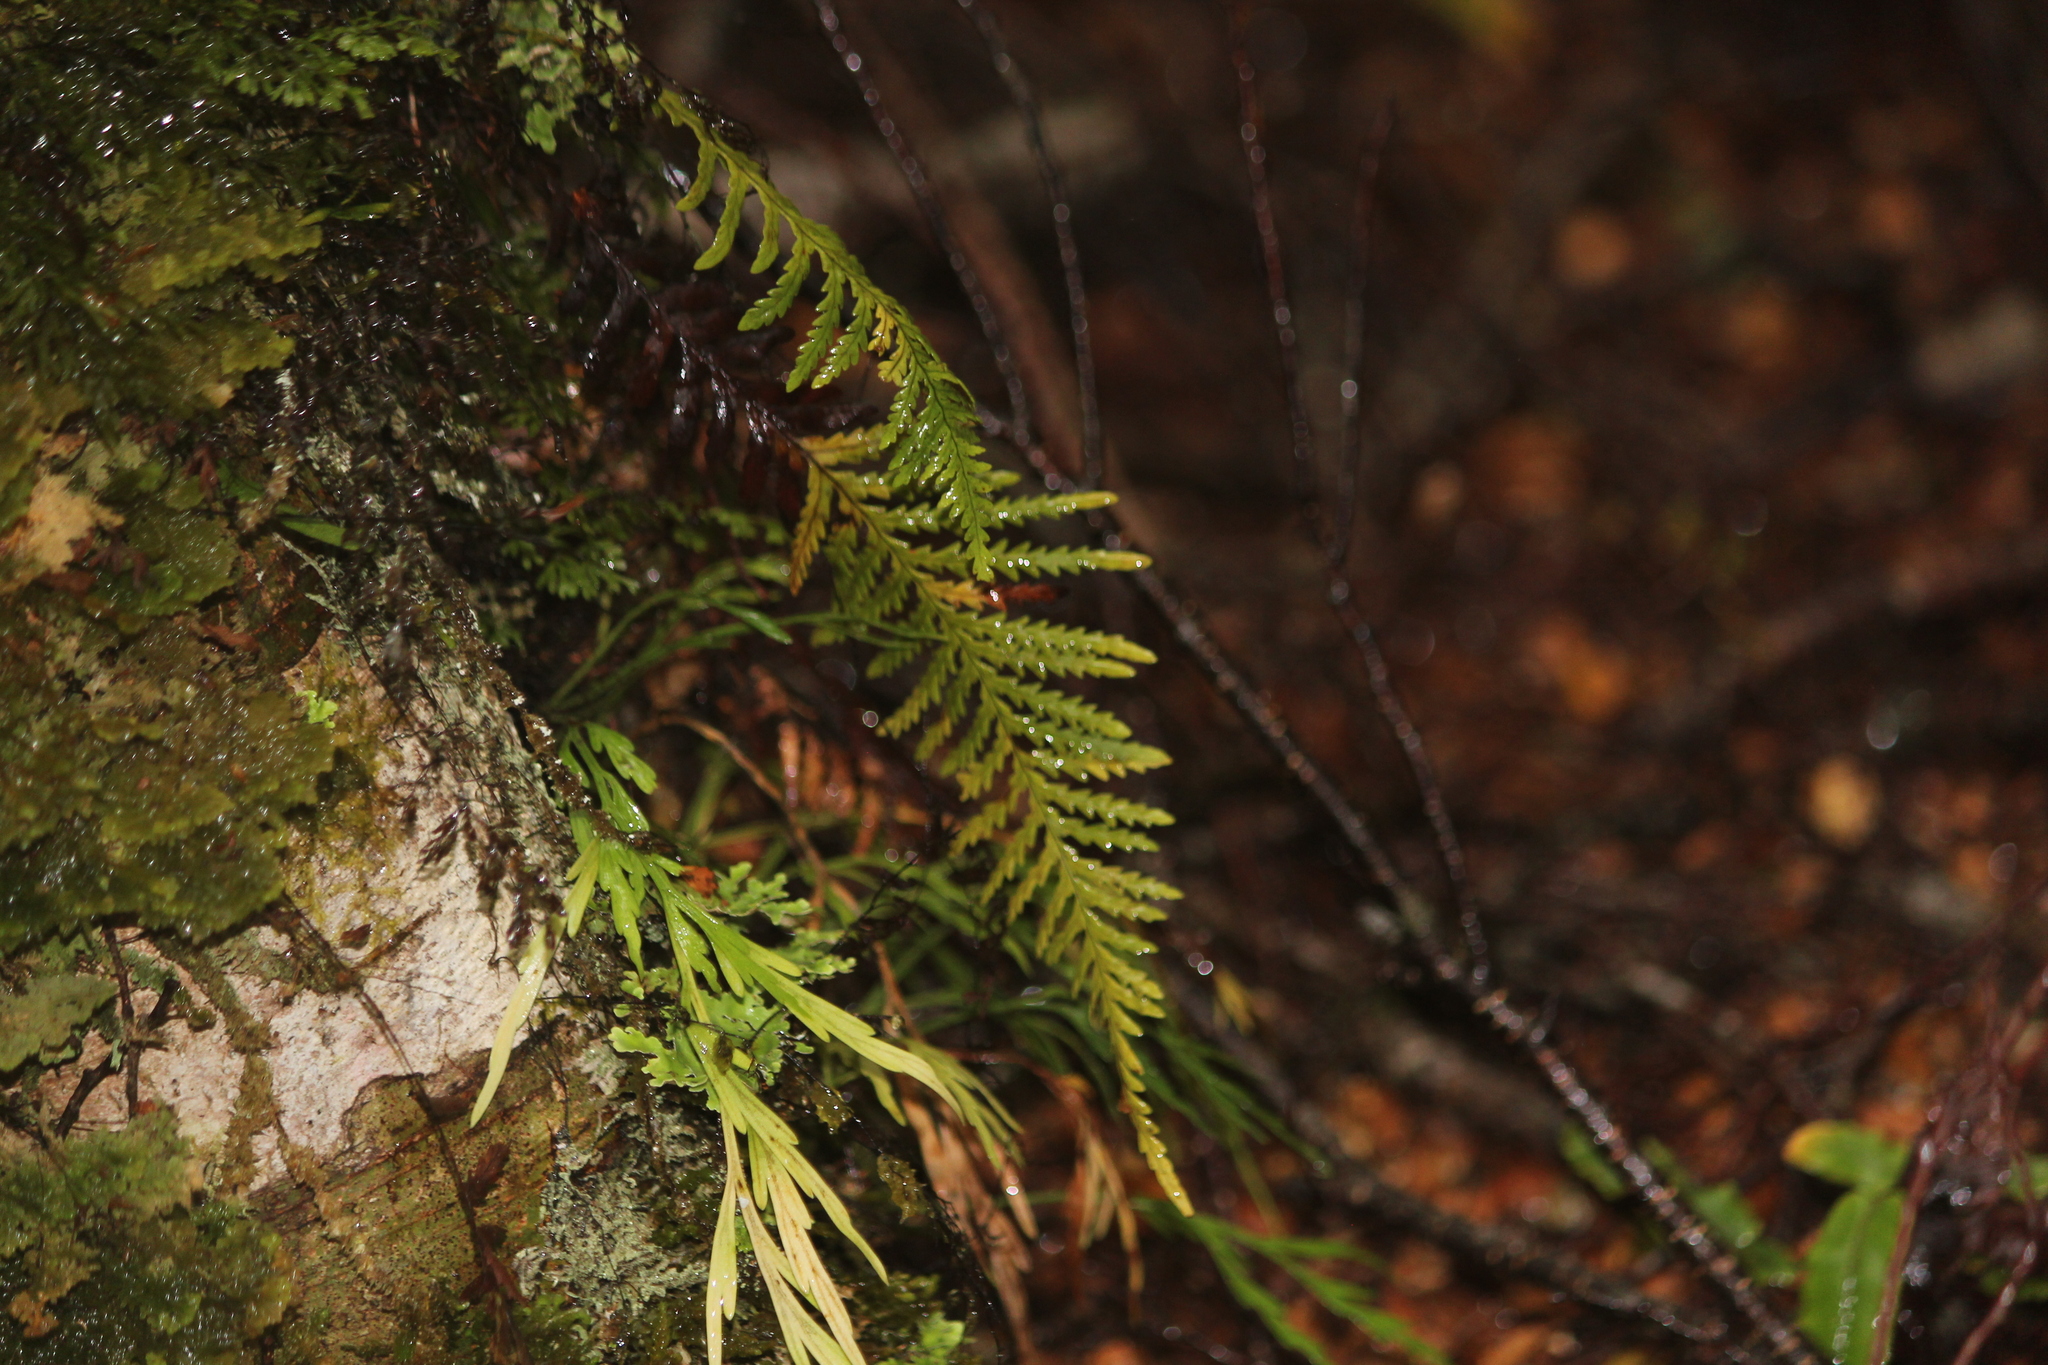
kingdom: Plantae
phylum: Tracheophyta
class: Polypodiopsida
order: Polypodiales
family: Polypodiaceae
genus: Notogrammitis
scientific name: Notogrammitis heterophylla
